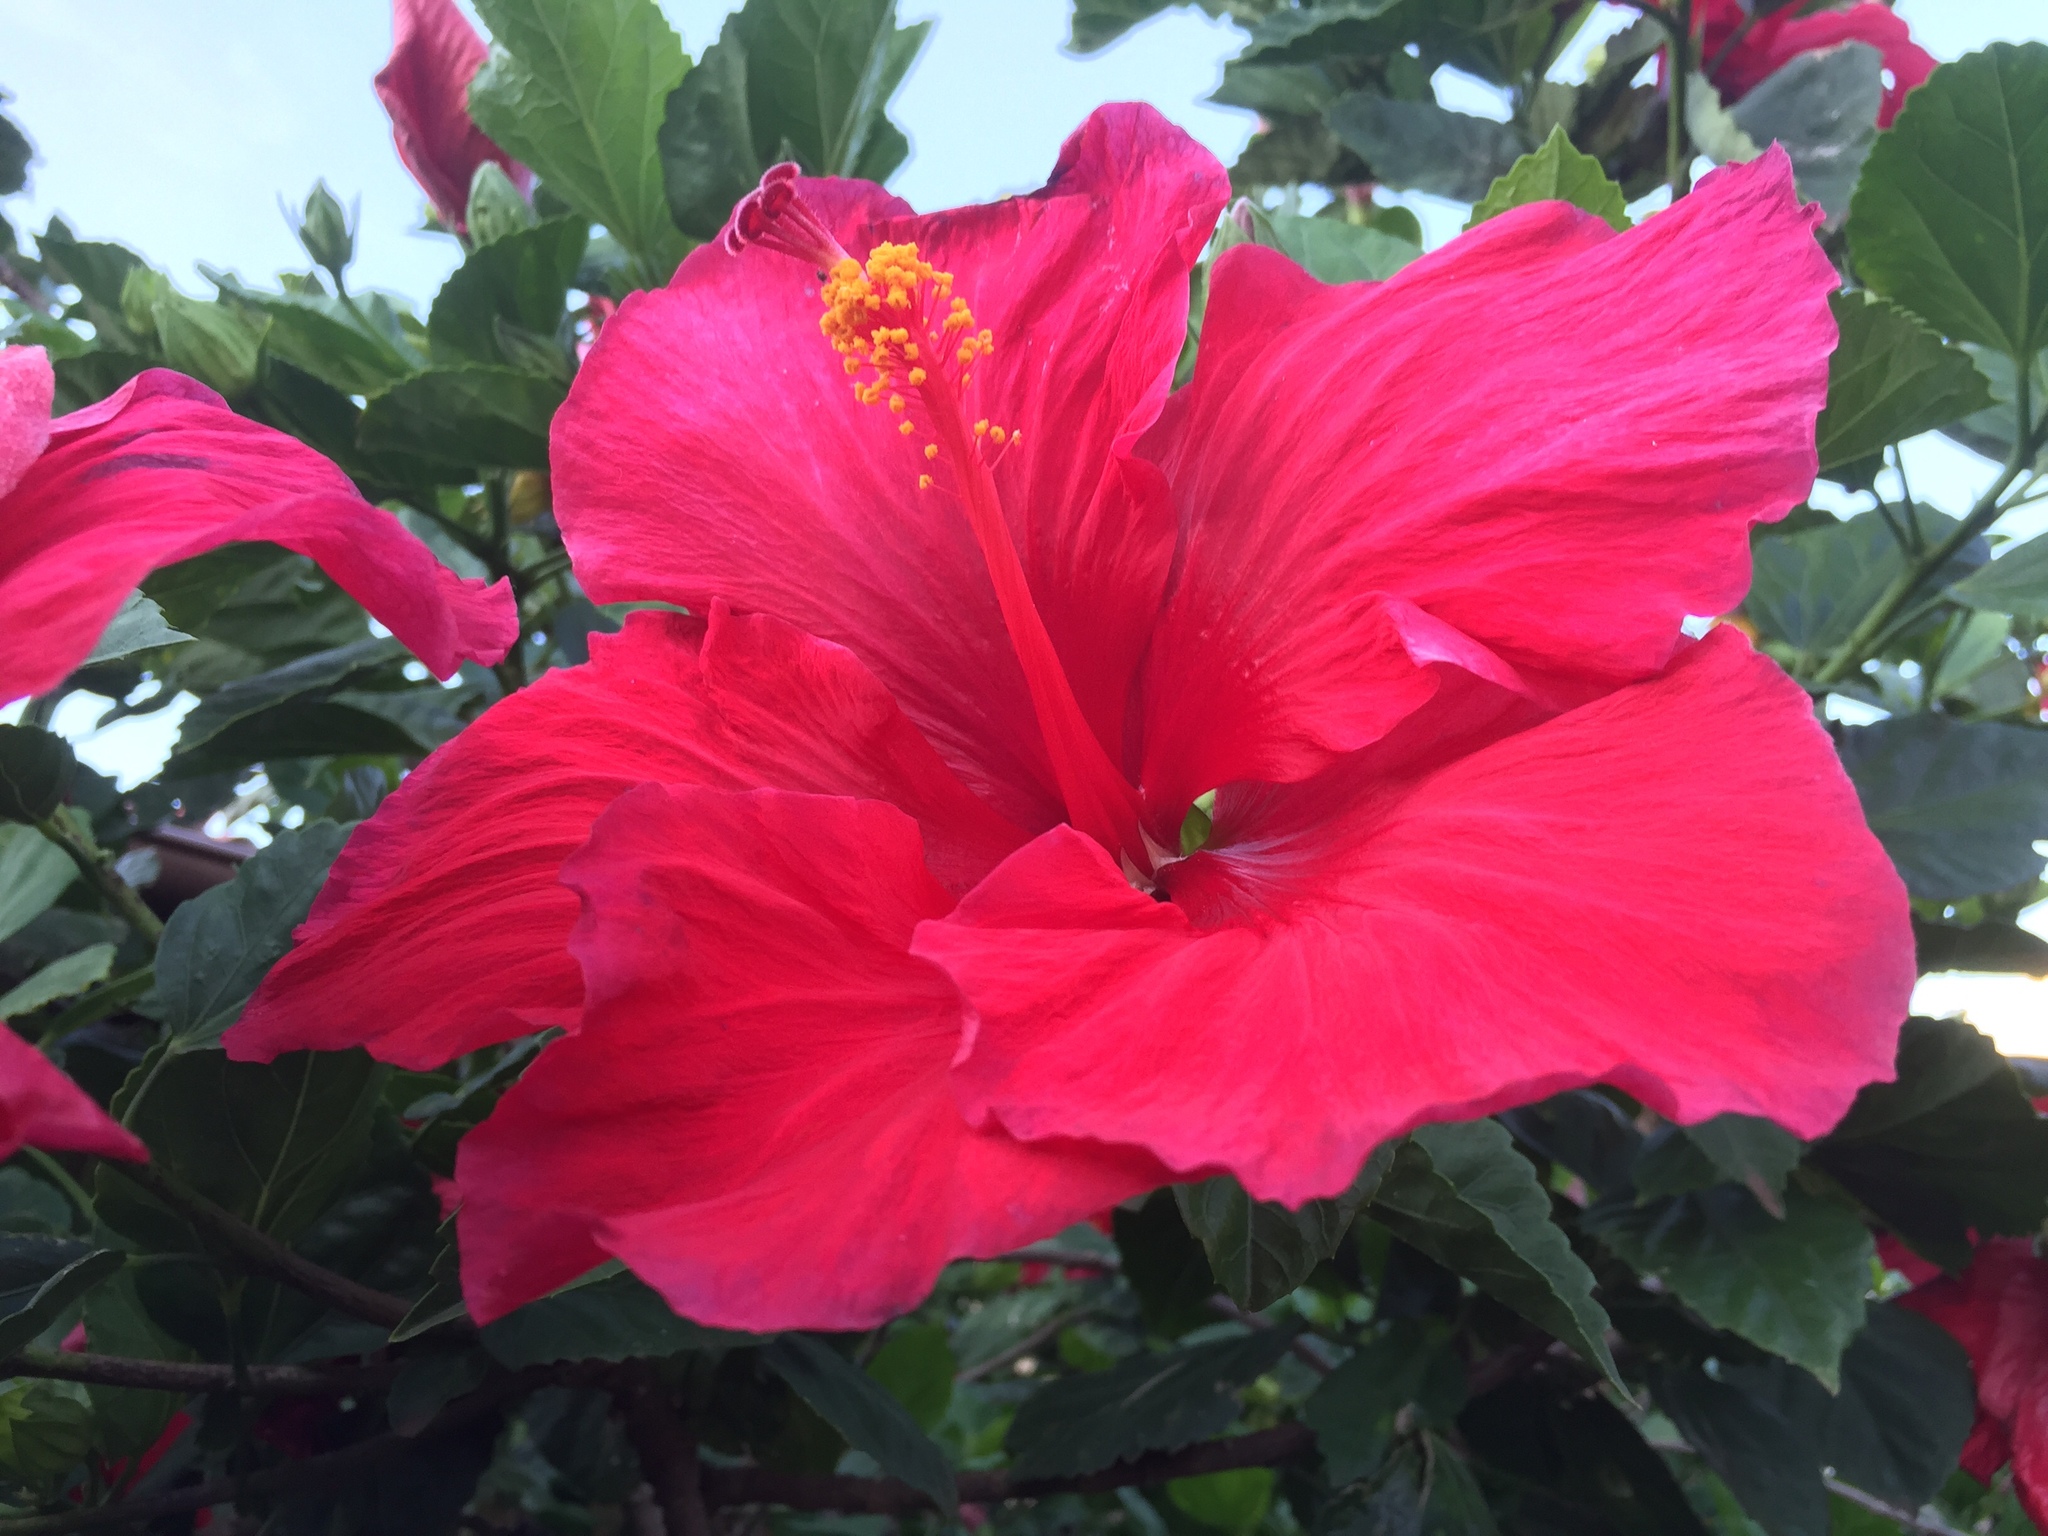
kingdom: Plantae
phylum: Tracheophyta
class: Magnoliopsida
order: Malvales
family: Malvaceae
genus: Hibiscus
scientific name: Hibiscus rosa-sinensis
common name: Hibiscus
